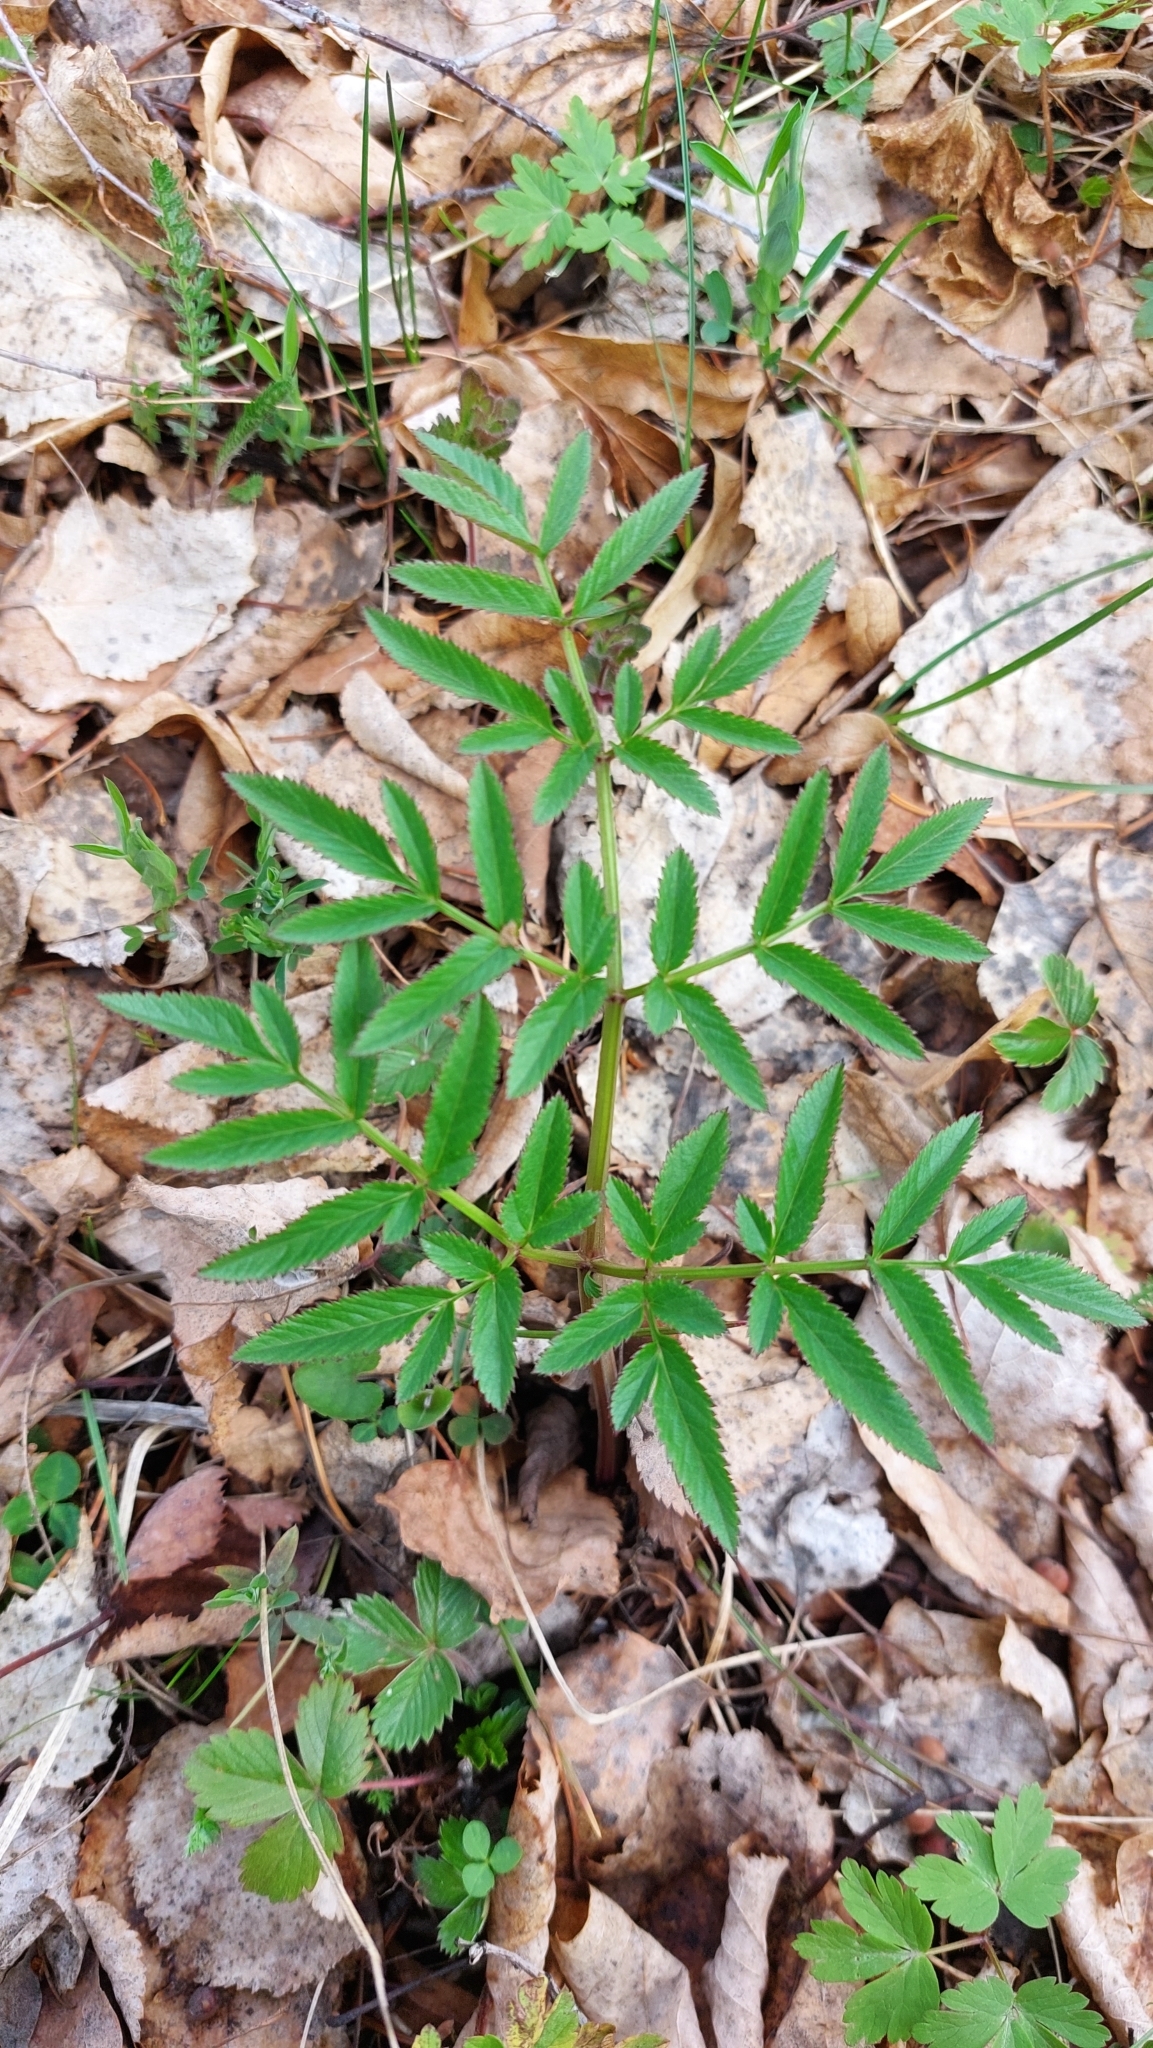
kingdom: Plantae
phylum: Tracheophyta
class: Magnoliopsida
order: Apiales
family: Apiaceae
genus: Angelica
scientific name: Angelica sylvestris
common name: Wild angelica
